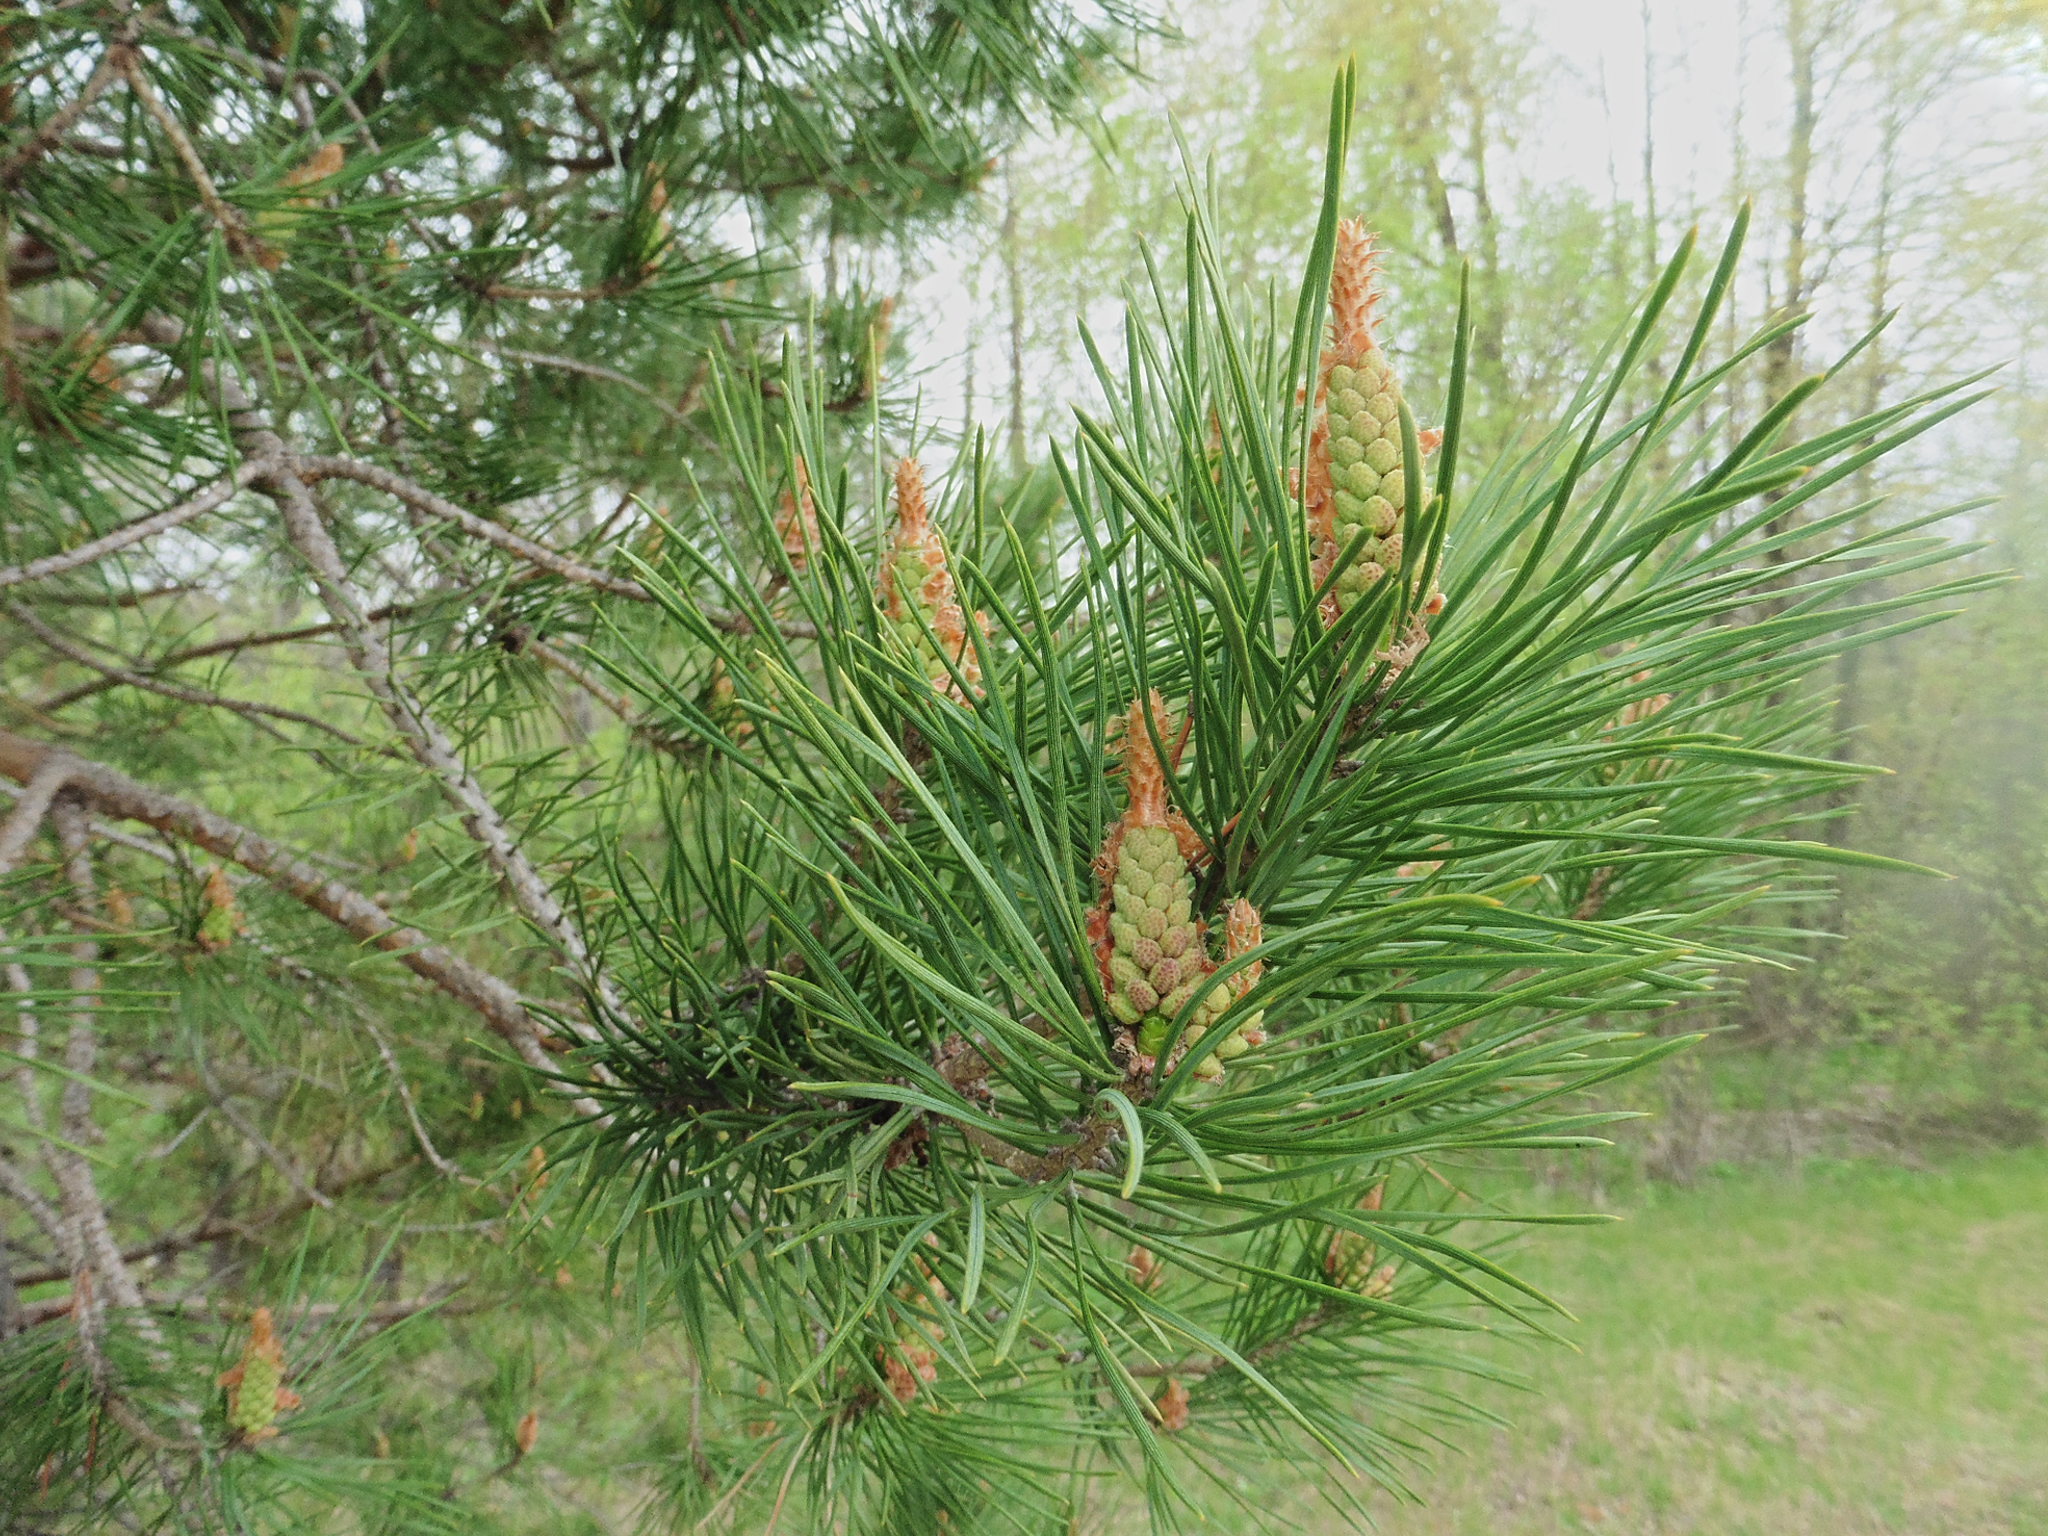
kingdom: Plantae
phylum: Tracheophyta
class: Pinopsida
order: Pinales
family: Pinaceae
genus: Pinus
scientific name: Pinus sylvestris
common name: Scots pine
